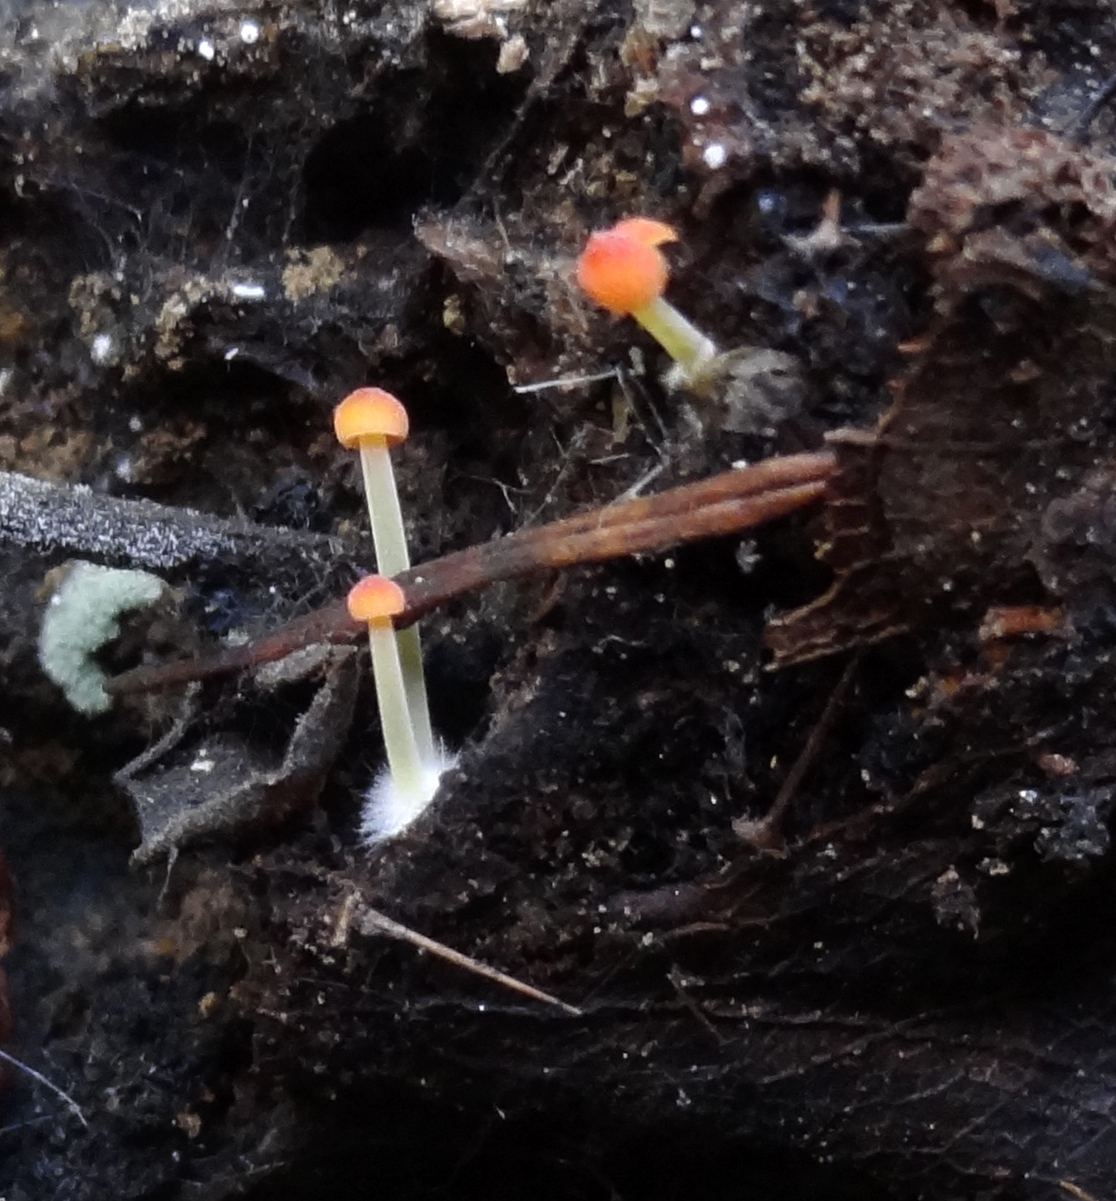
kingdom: Fungi
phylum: Basidiomycota
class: Agaricomycetes
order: Agaricales
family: Mycenaceae
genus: Mycena
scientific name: Mycena acicula
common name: Orange bonnet
